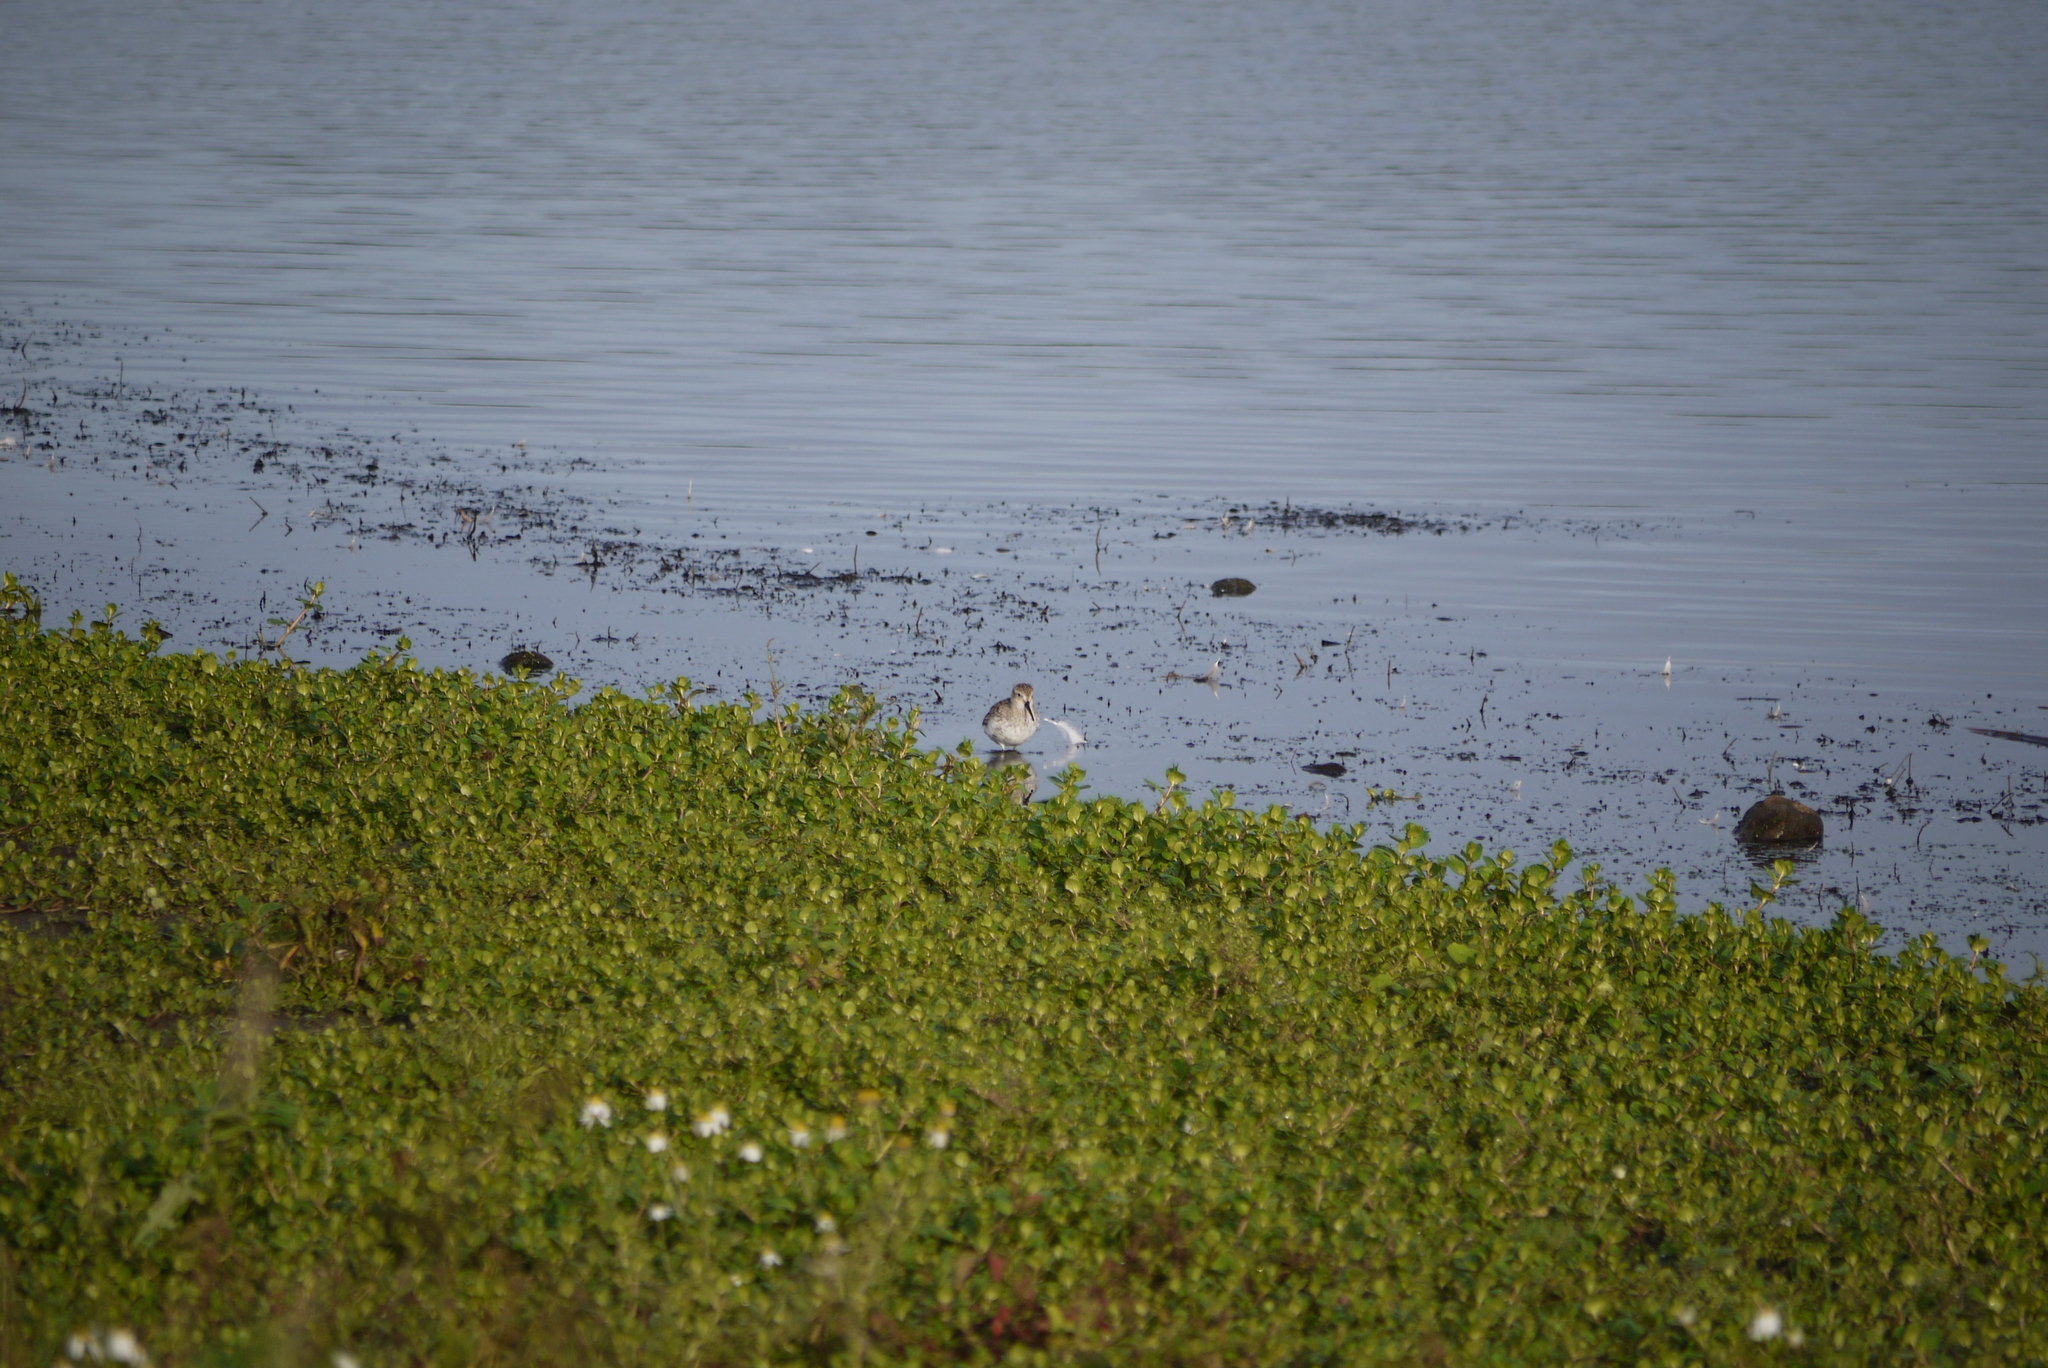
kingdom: Animalia
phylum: Chordata
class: Aves
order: Charadriiformes
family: Scolopacidae
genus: Calidris
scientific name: Calidris alpina
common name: Dunlin
